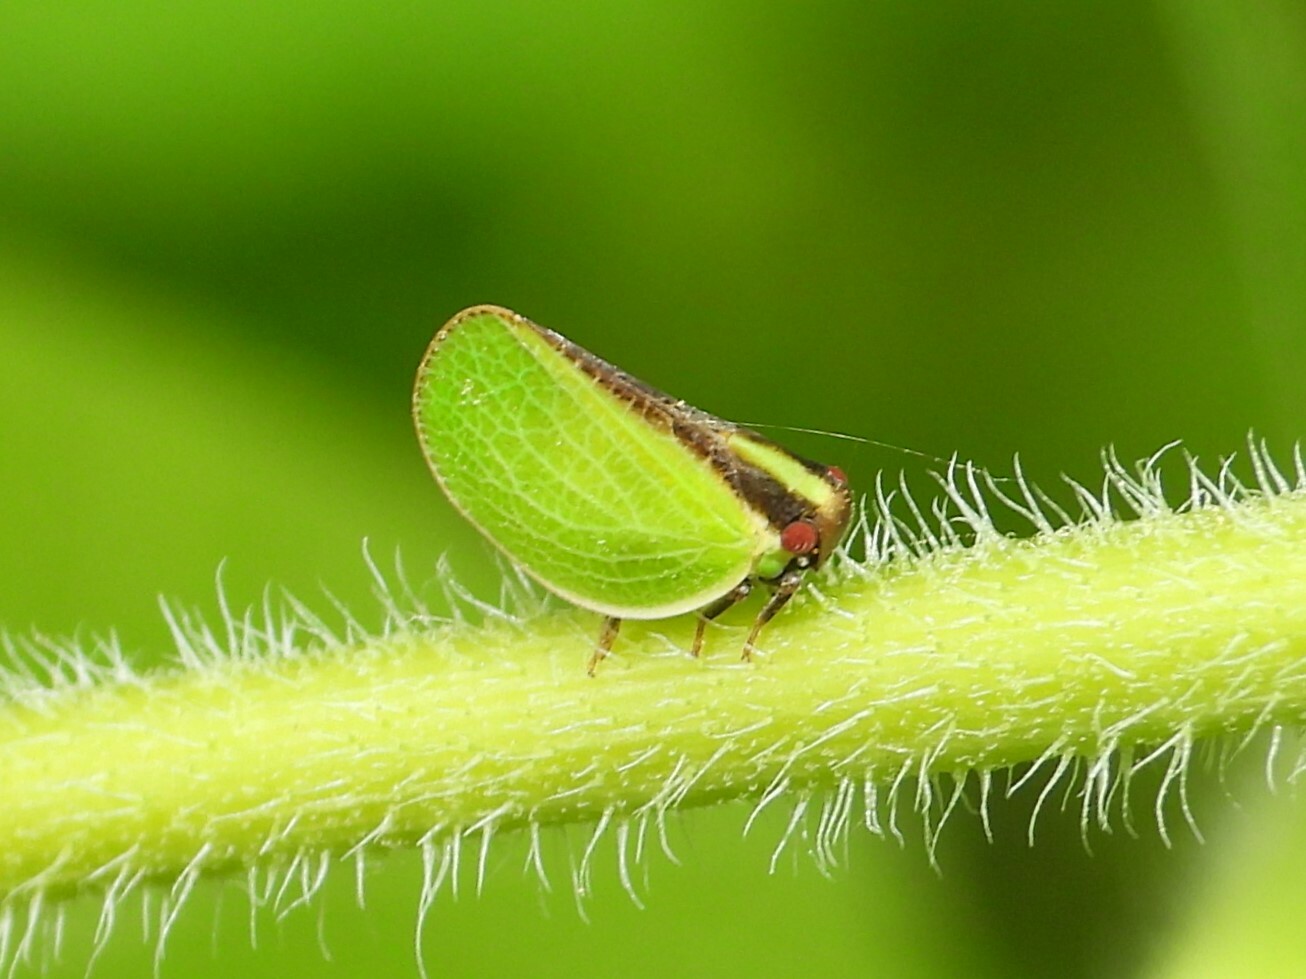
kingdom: Animalia
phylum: Arthropoda
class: Insecta
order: Hemiptera
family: Acanaloniidae
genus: Acanalonia
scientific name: Acanalonia bivittata
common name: Two-striped planthopper
